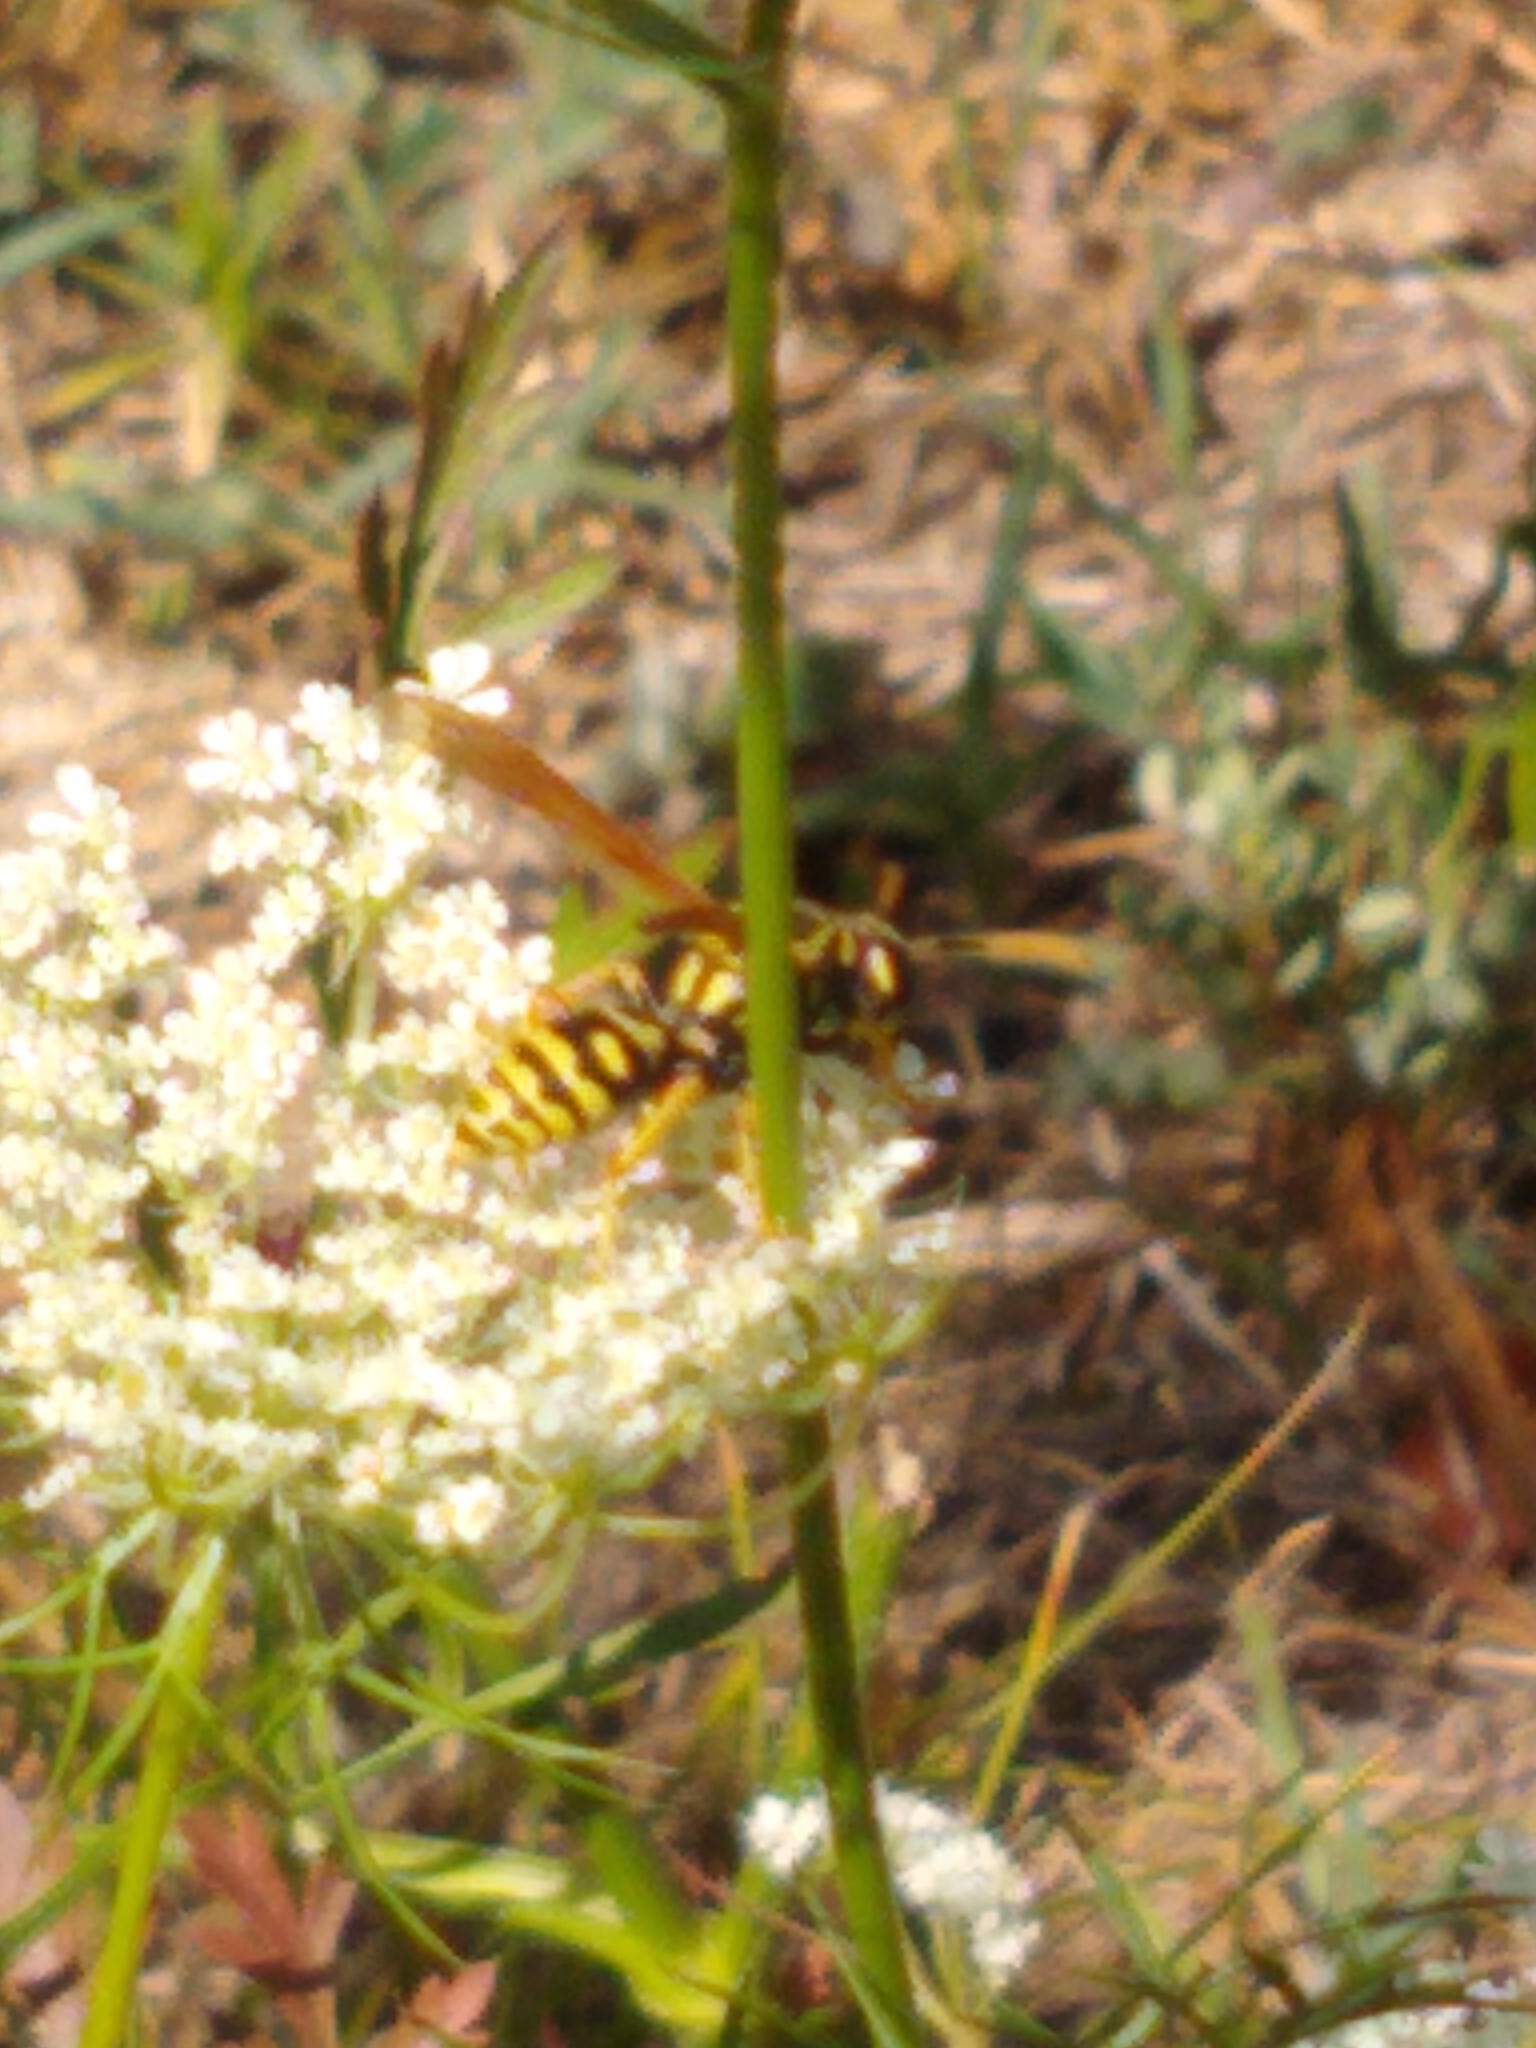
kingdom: Animalia
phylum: Arthropoda
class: Insecta
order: Hymenoptera
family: Eumenidae
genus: Polistes
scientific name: Polistes dominula
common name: Paper wasp
